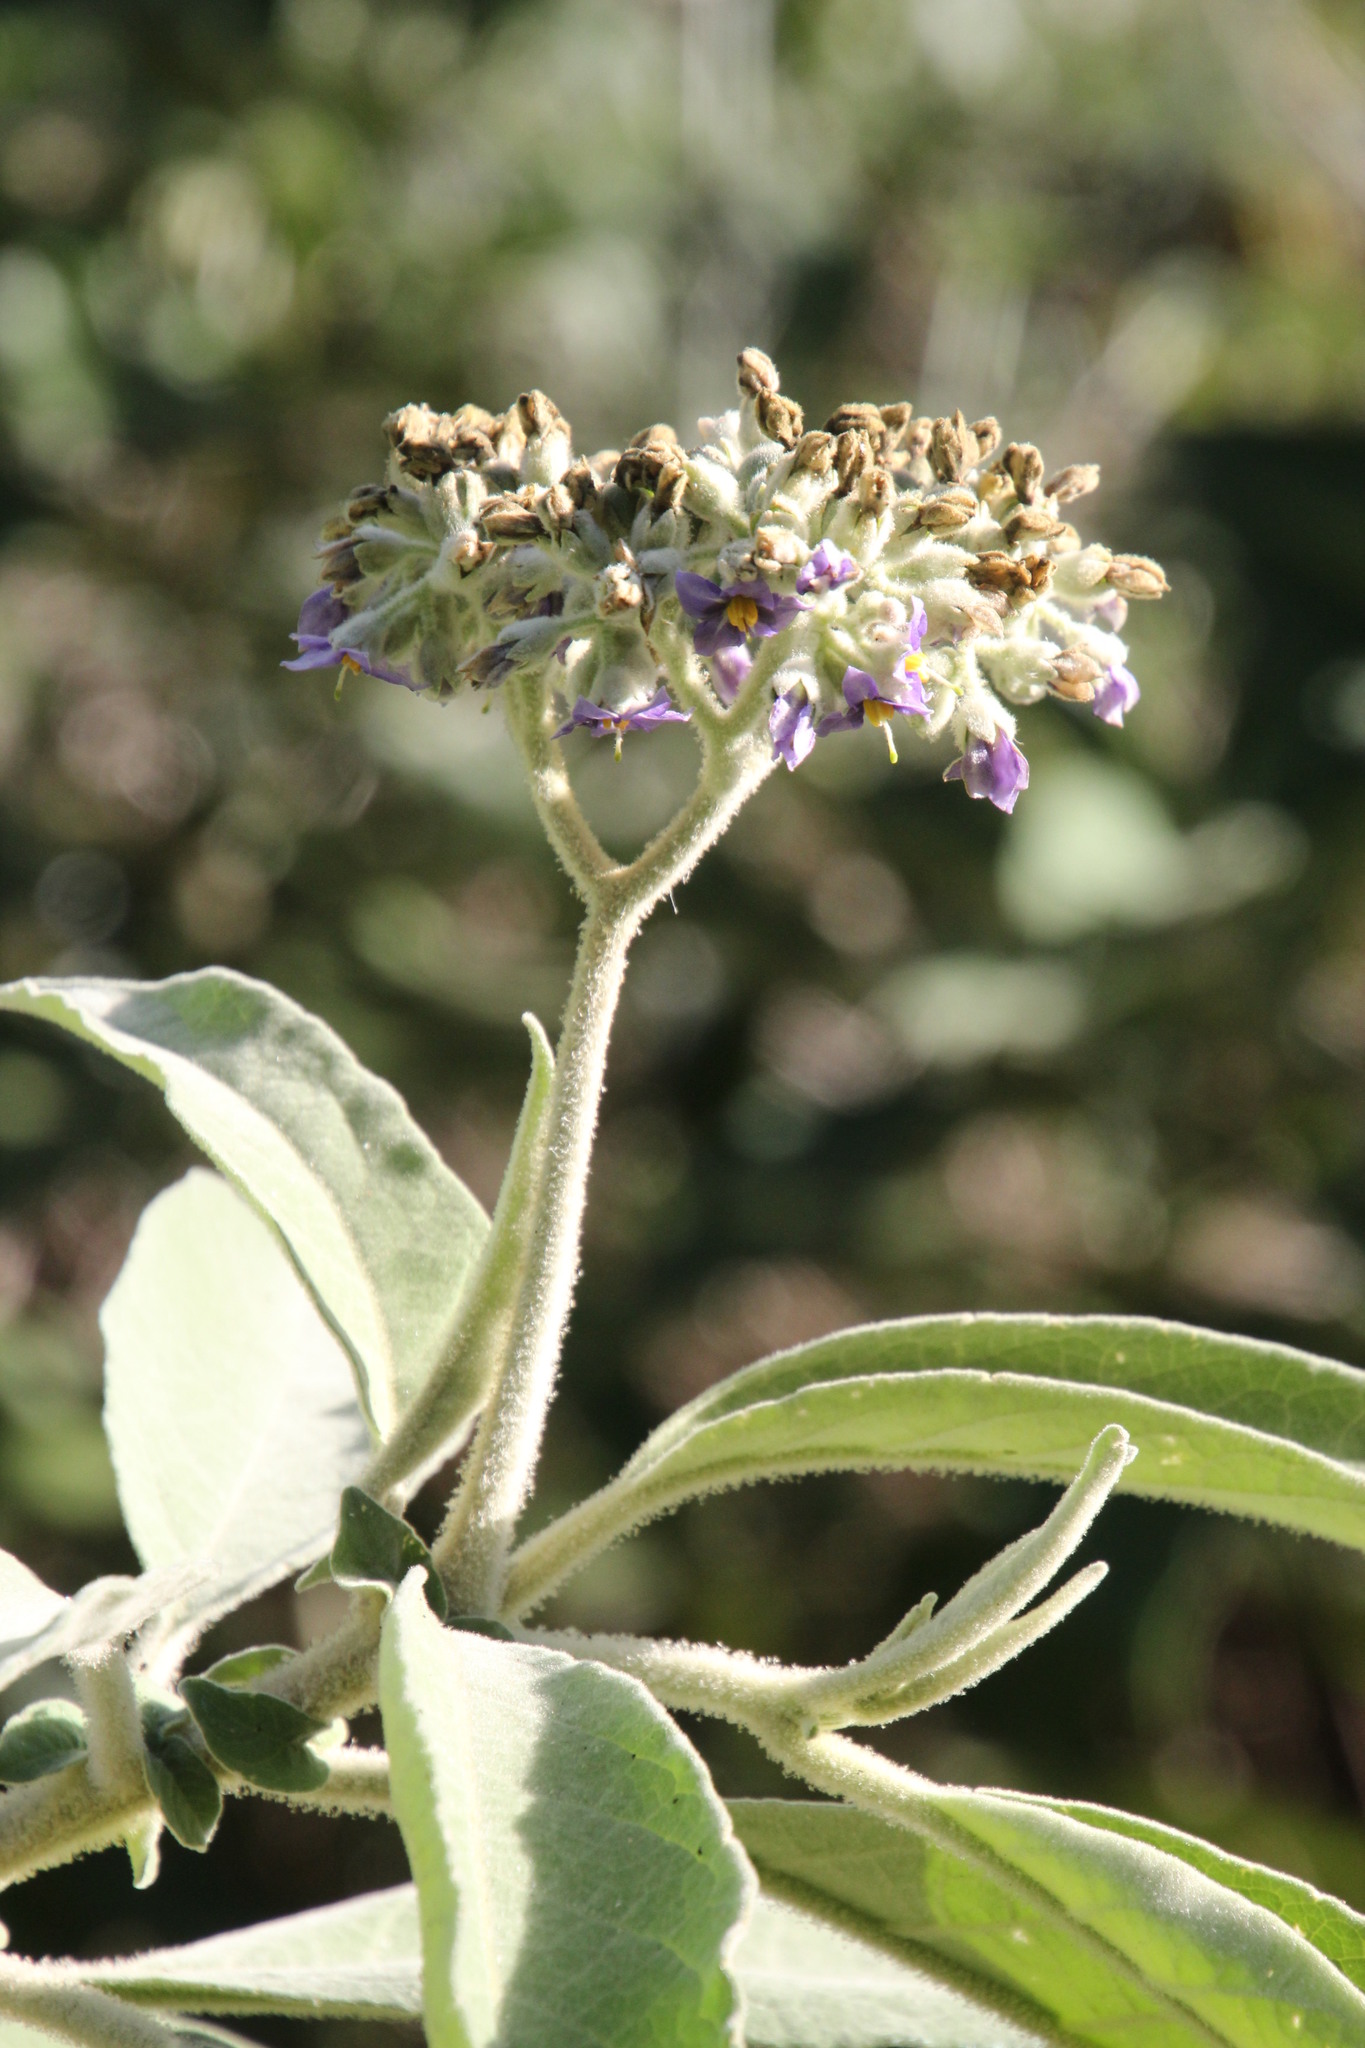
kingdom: Plantae
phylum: Tracheophyta
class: Magnoliopsida
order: Solanales
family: Solanaceae
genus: Solanum
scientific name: Solanum mauritianum
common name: Earleaf nightshade
